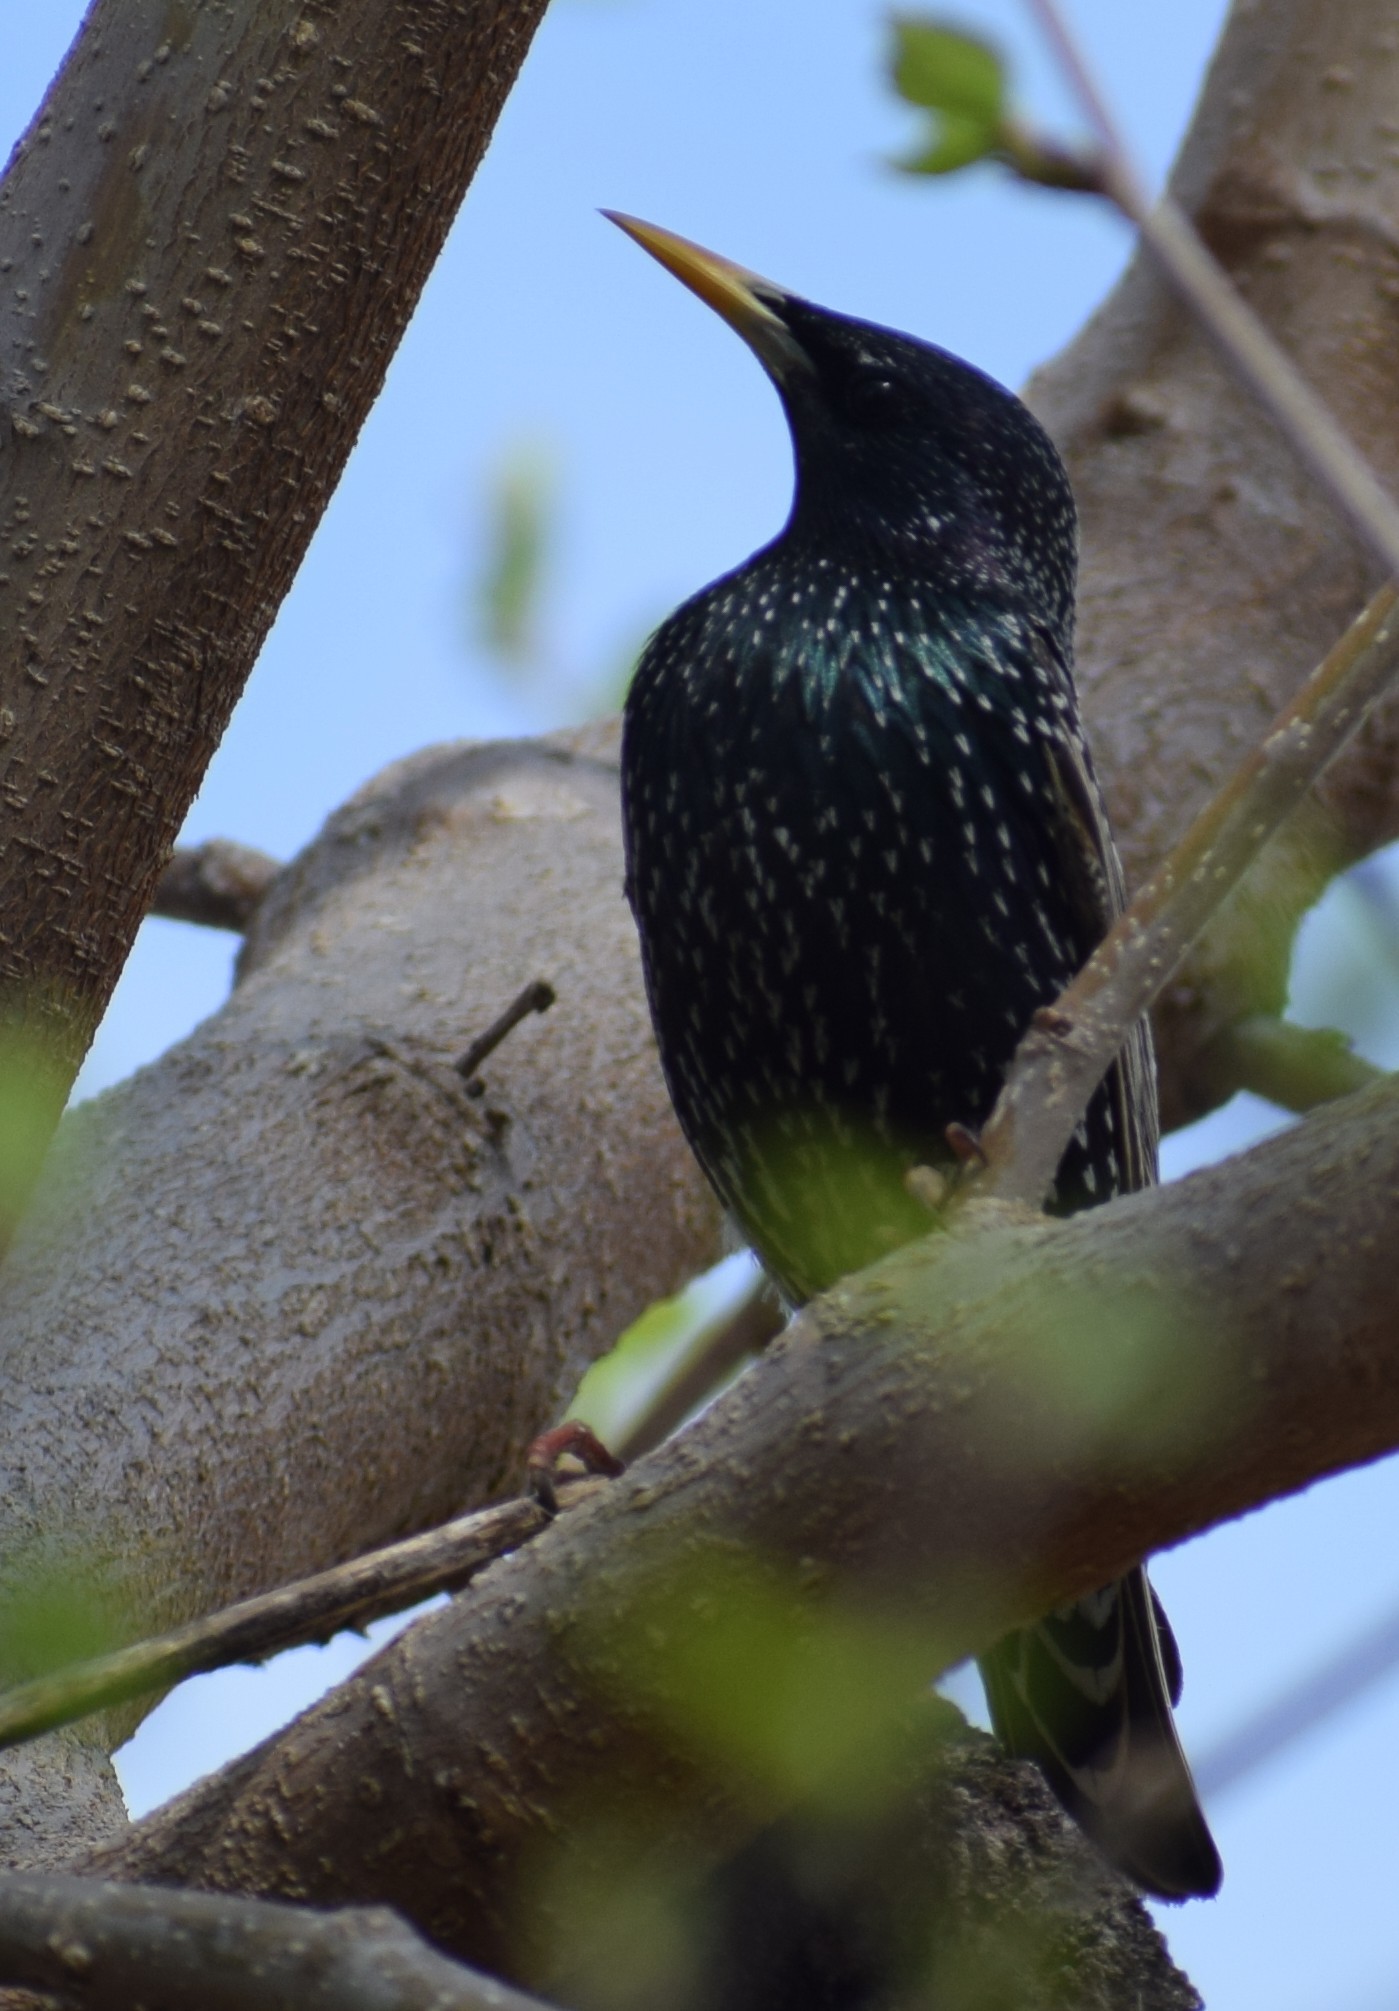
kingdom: Animalia
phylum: Chordata
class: Aves
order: Passeriformes
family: Sturnidae
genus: Sturnus
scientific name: Sturnus vulgaris
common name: Common starling
